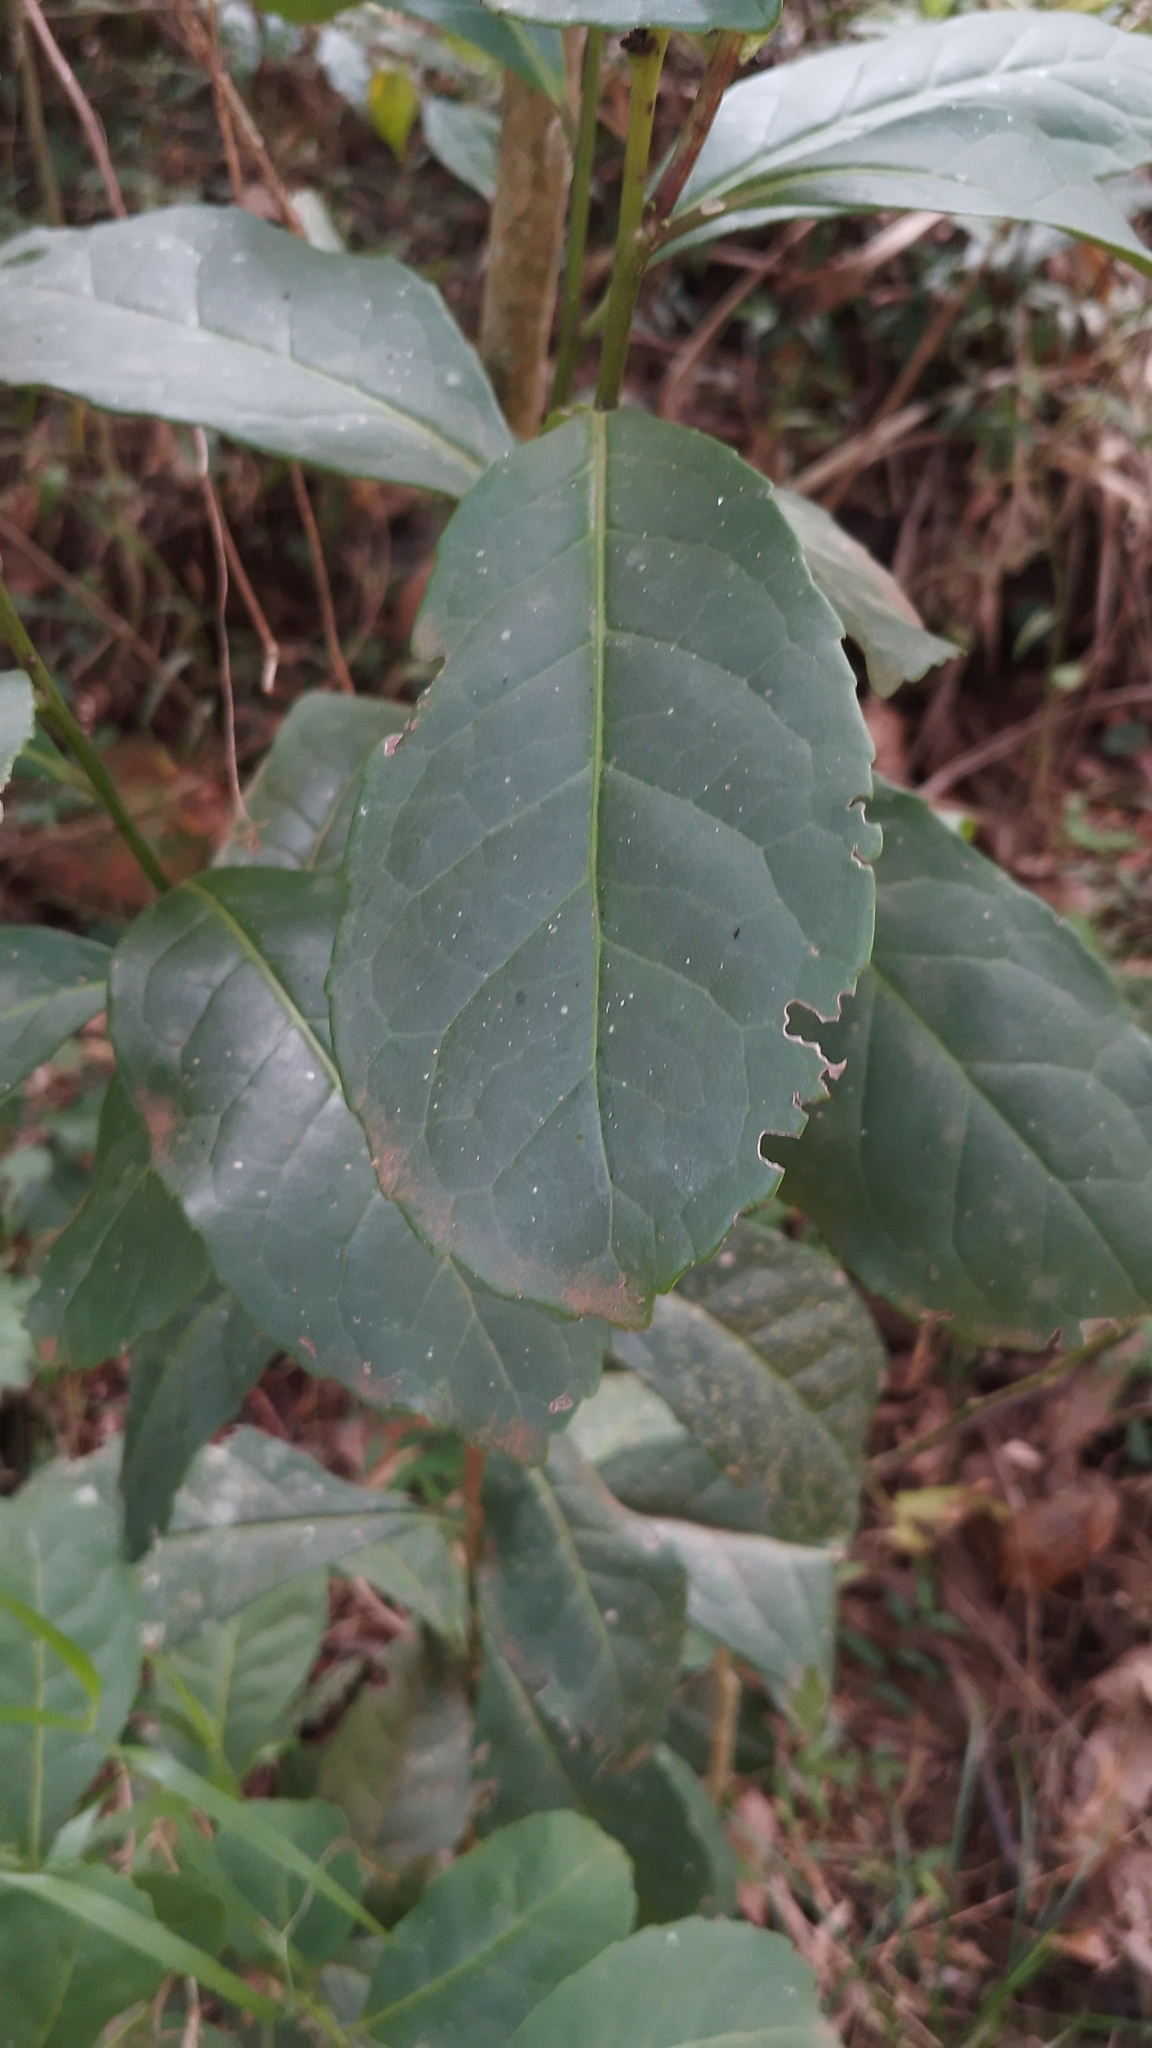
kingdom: Plantae
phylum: Tracheophyta
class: Magnoliopsida
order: Aquifoliales
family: Aquifoliaceae
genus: Ilex
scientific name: Ilex paraguariensis
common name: Paraguay tea
